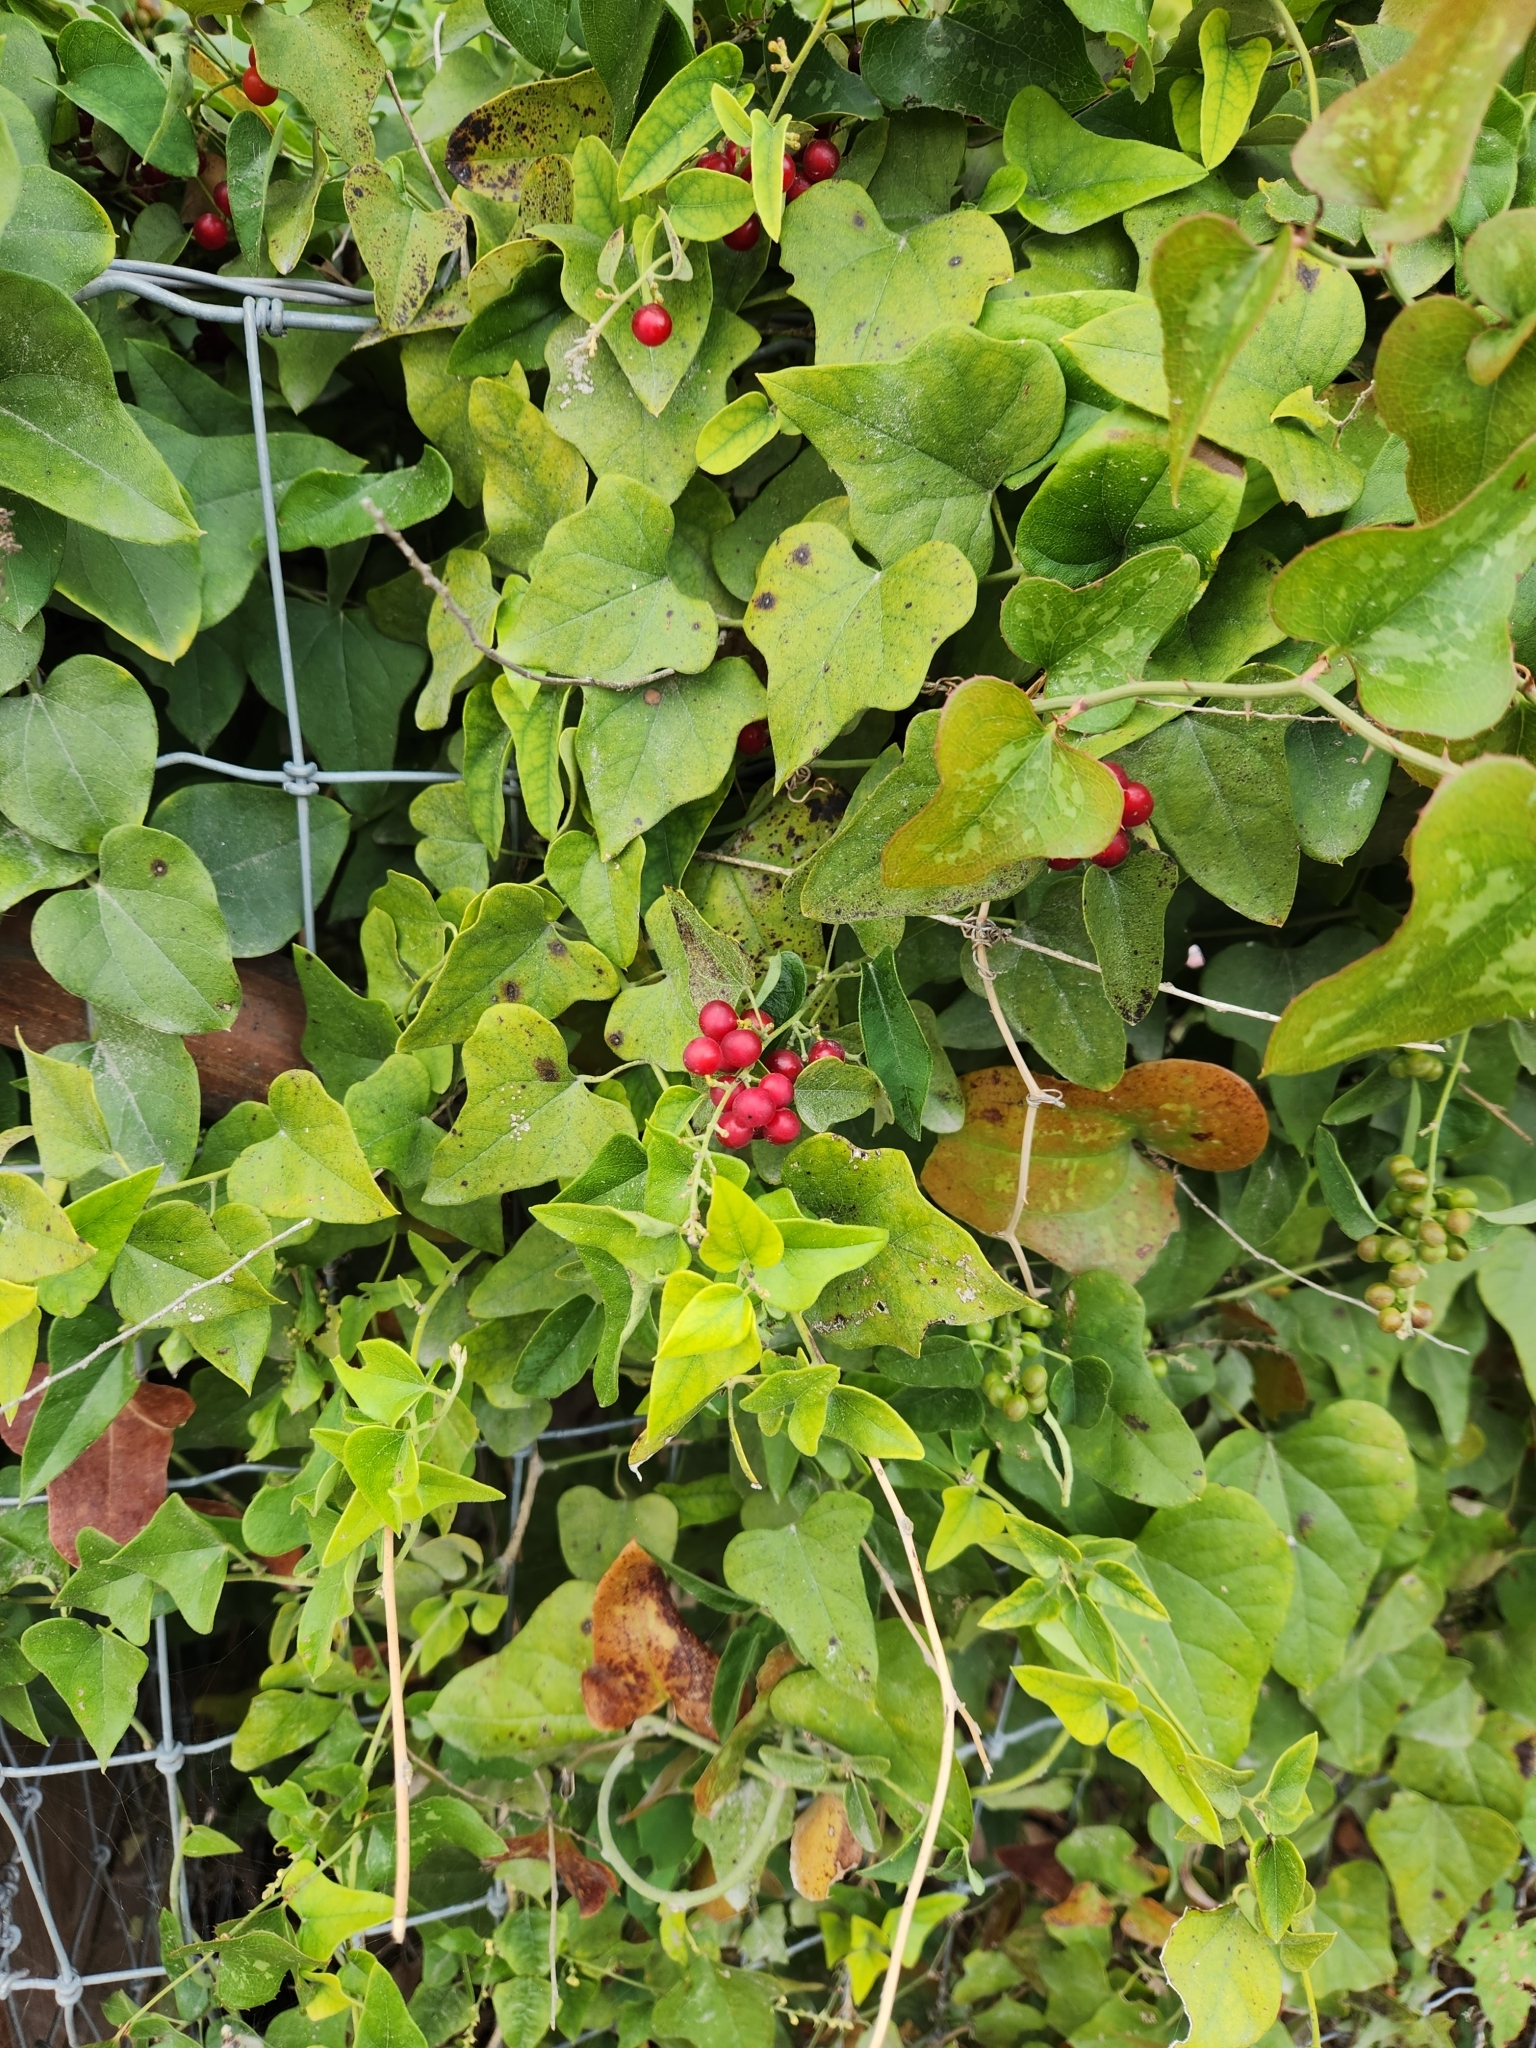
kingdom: Plantae
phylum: Tracheophyta
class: Magnoliopsida
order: Ranunculales
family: Menispermaceae
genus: Cocculus
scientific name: Cocculus carolinus
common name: Carolina moonseed
